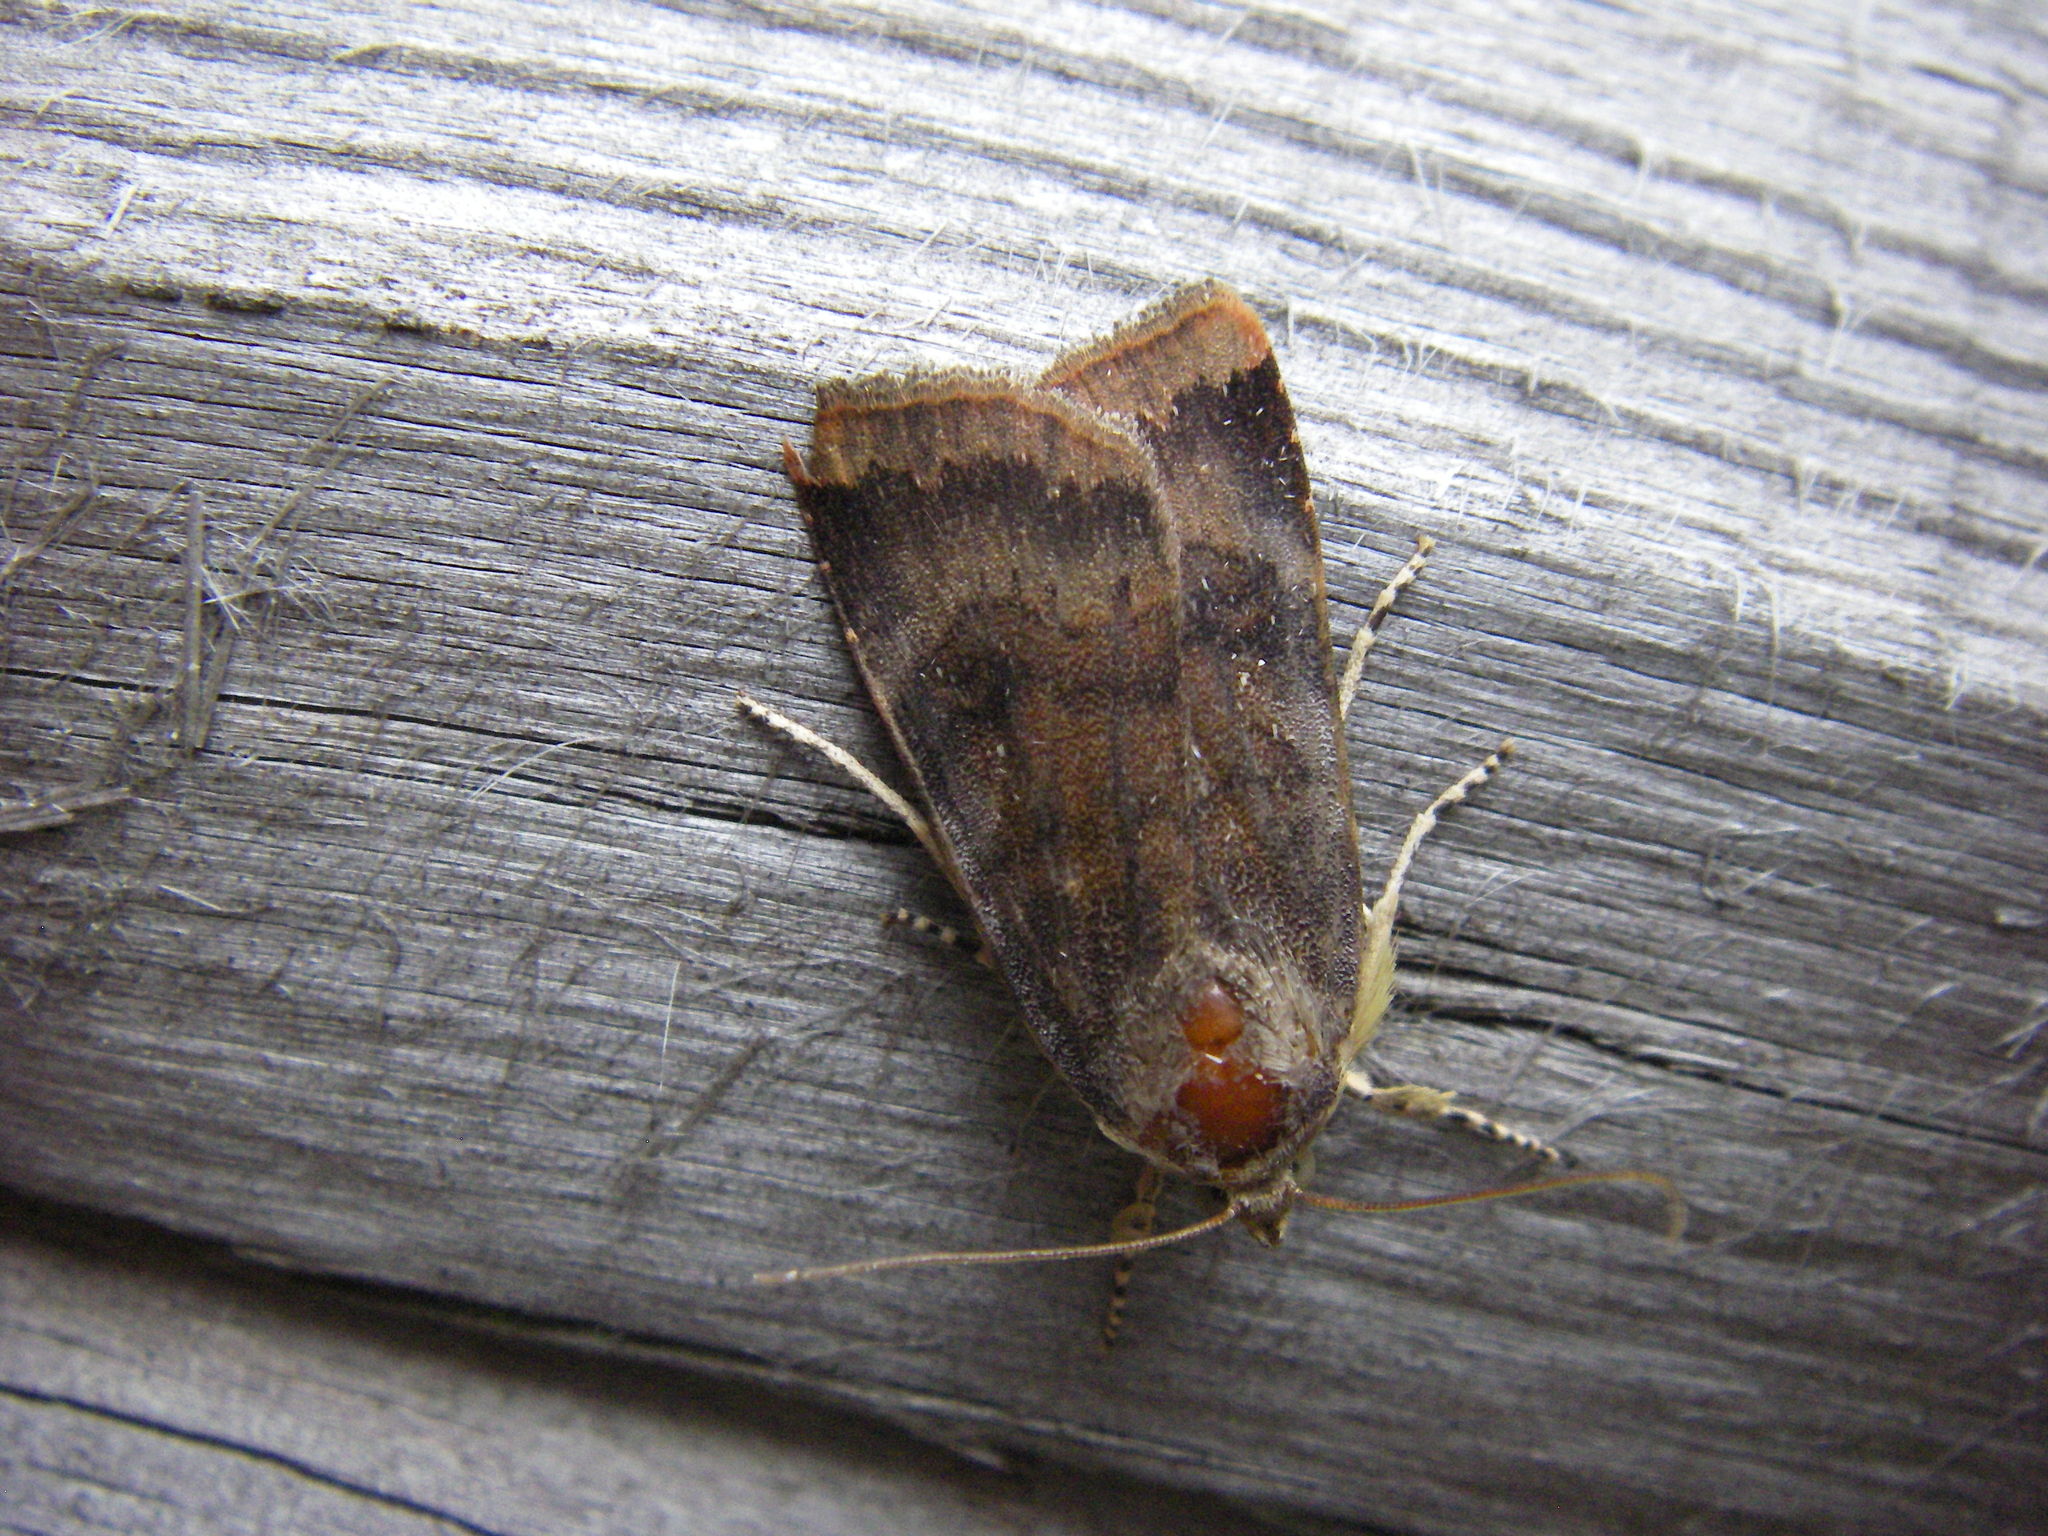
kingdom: Animalia
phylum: Arthropoda
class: Insecta
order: Lepidoptera
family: Noctuidae
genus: Noctua
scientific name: Noctua
